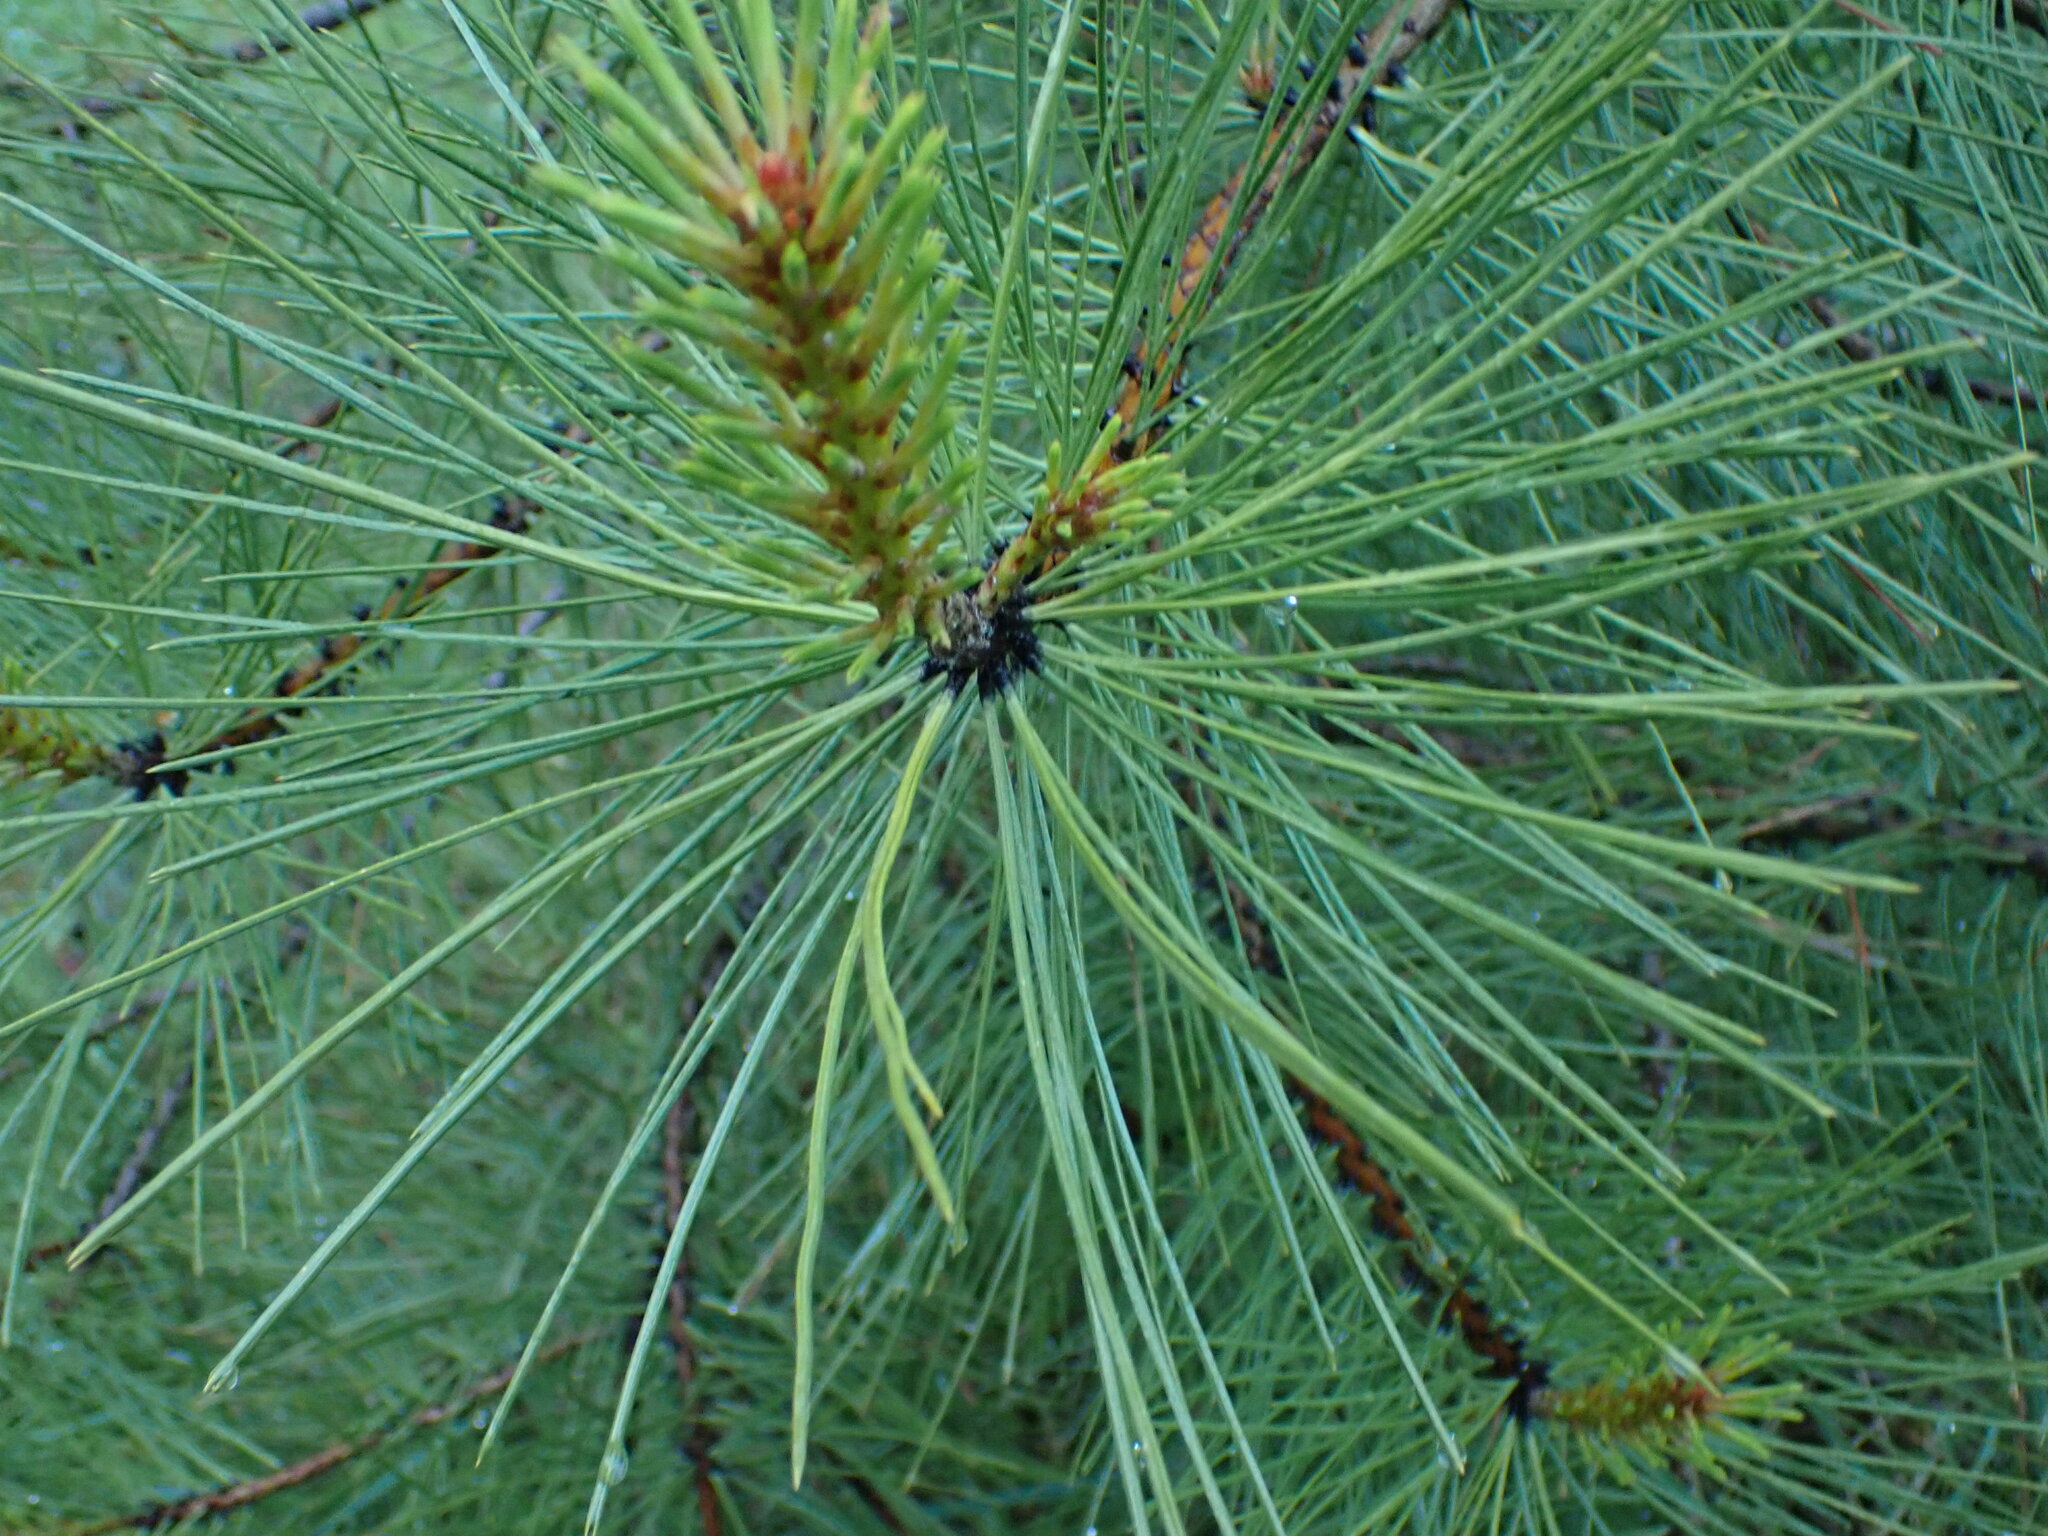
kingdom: Plantae
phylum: Tracheophyta
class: Pinopsida
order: Pinales
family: Pinaceae
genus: Pinus
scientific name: Pinus ponderosa
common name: Western yellow-pine
